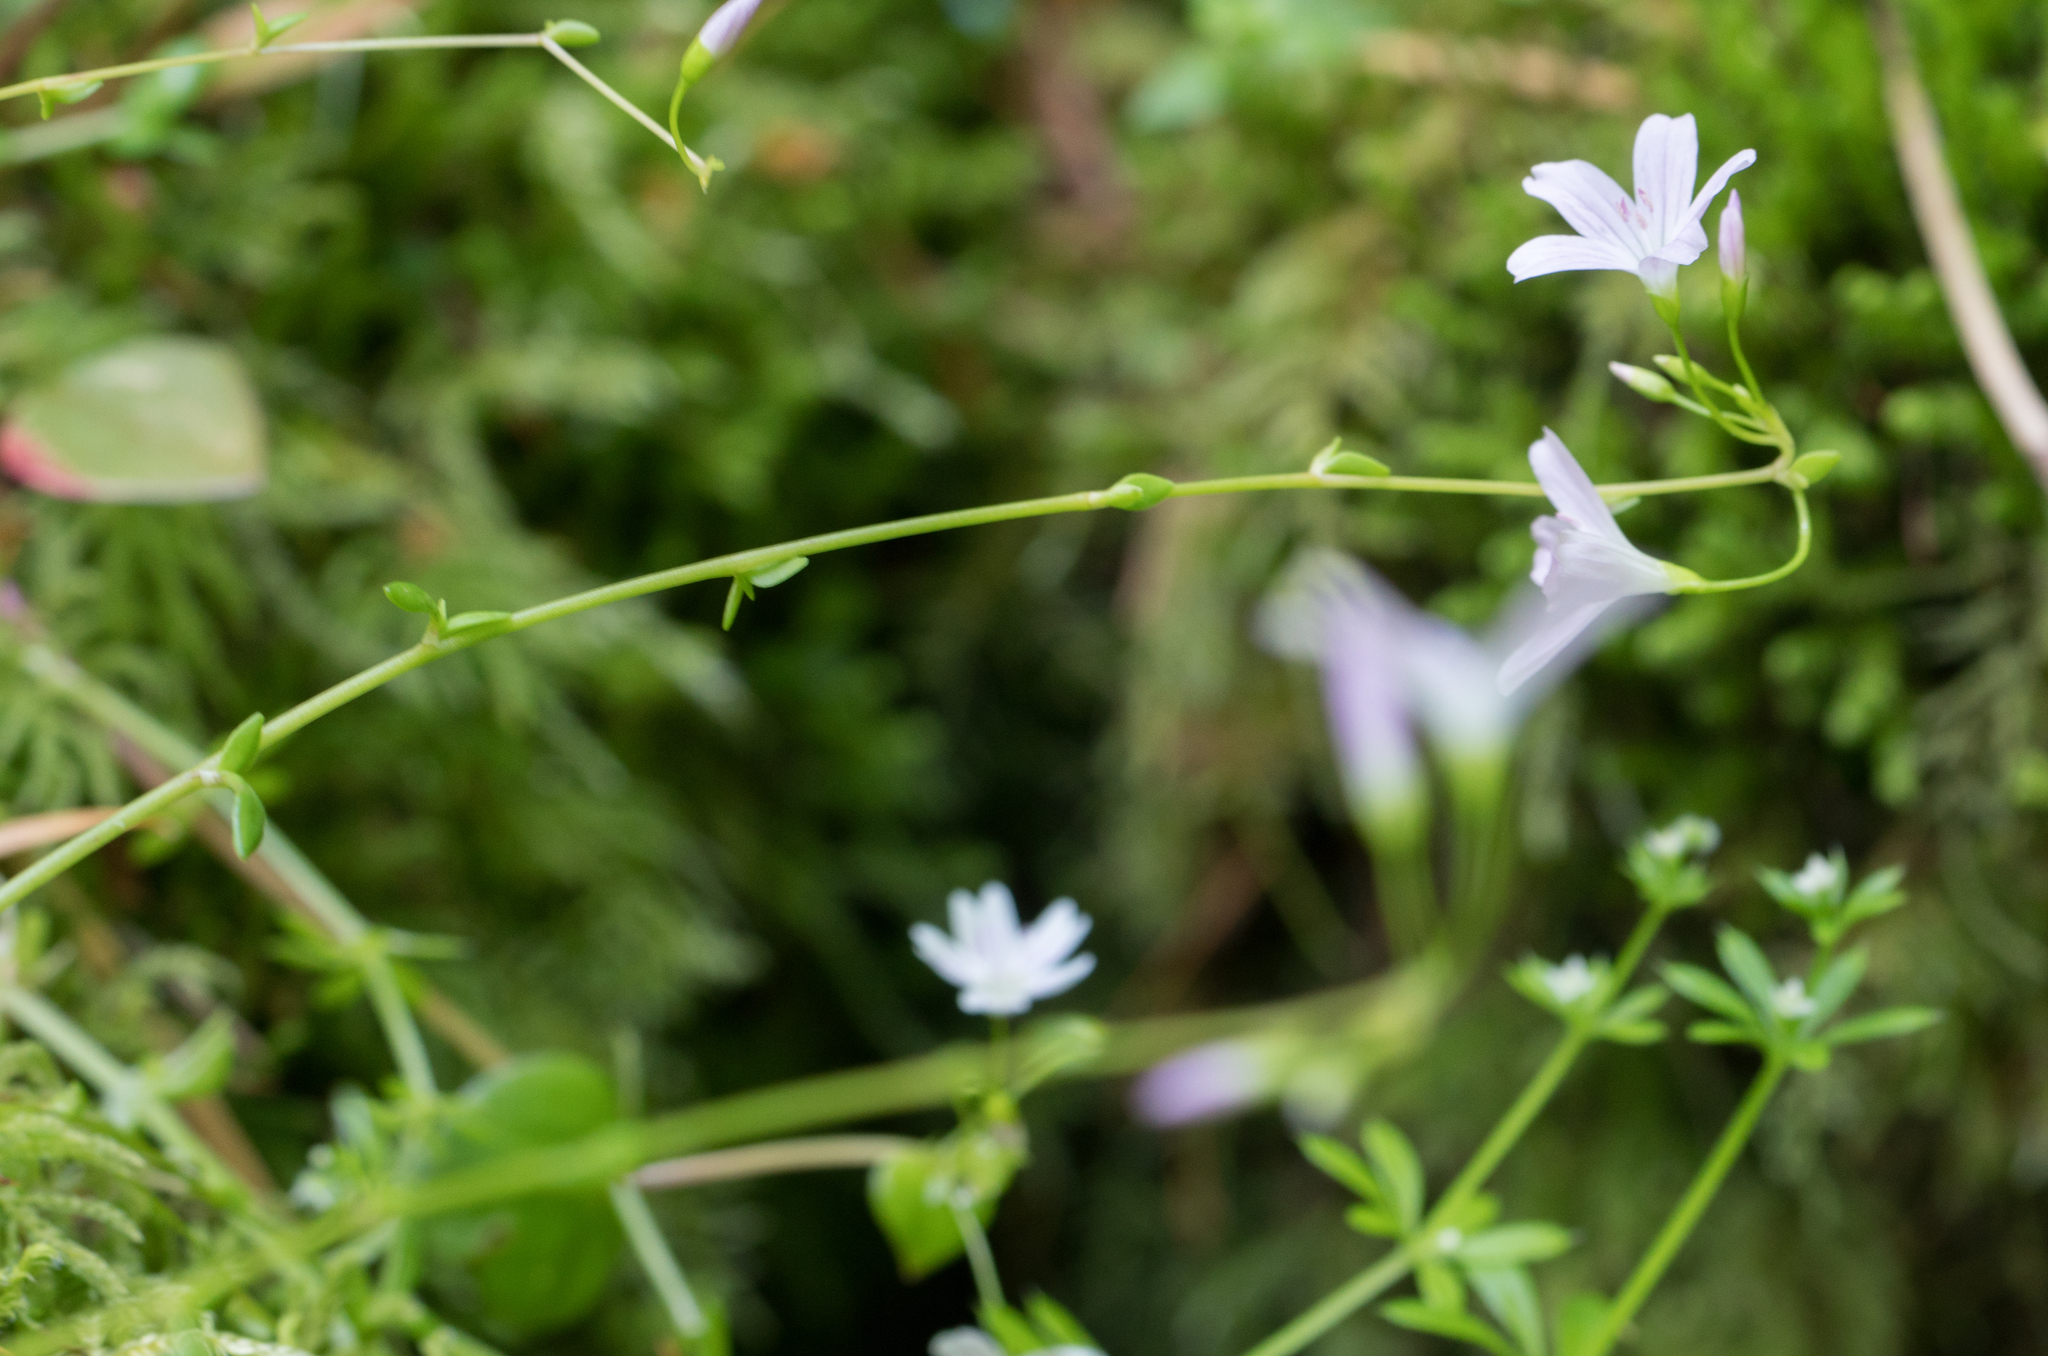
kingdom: Plantae
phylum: Tracheophyta
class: Magnoliopsida
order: Caryophyllales
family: Montiaceae
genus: Montia
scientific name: Montia parvifolia
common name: Small-leaved blinks
